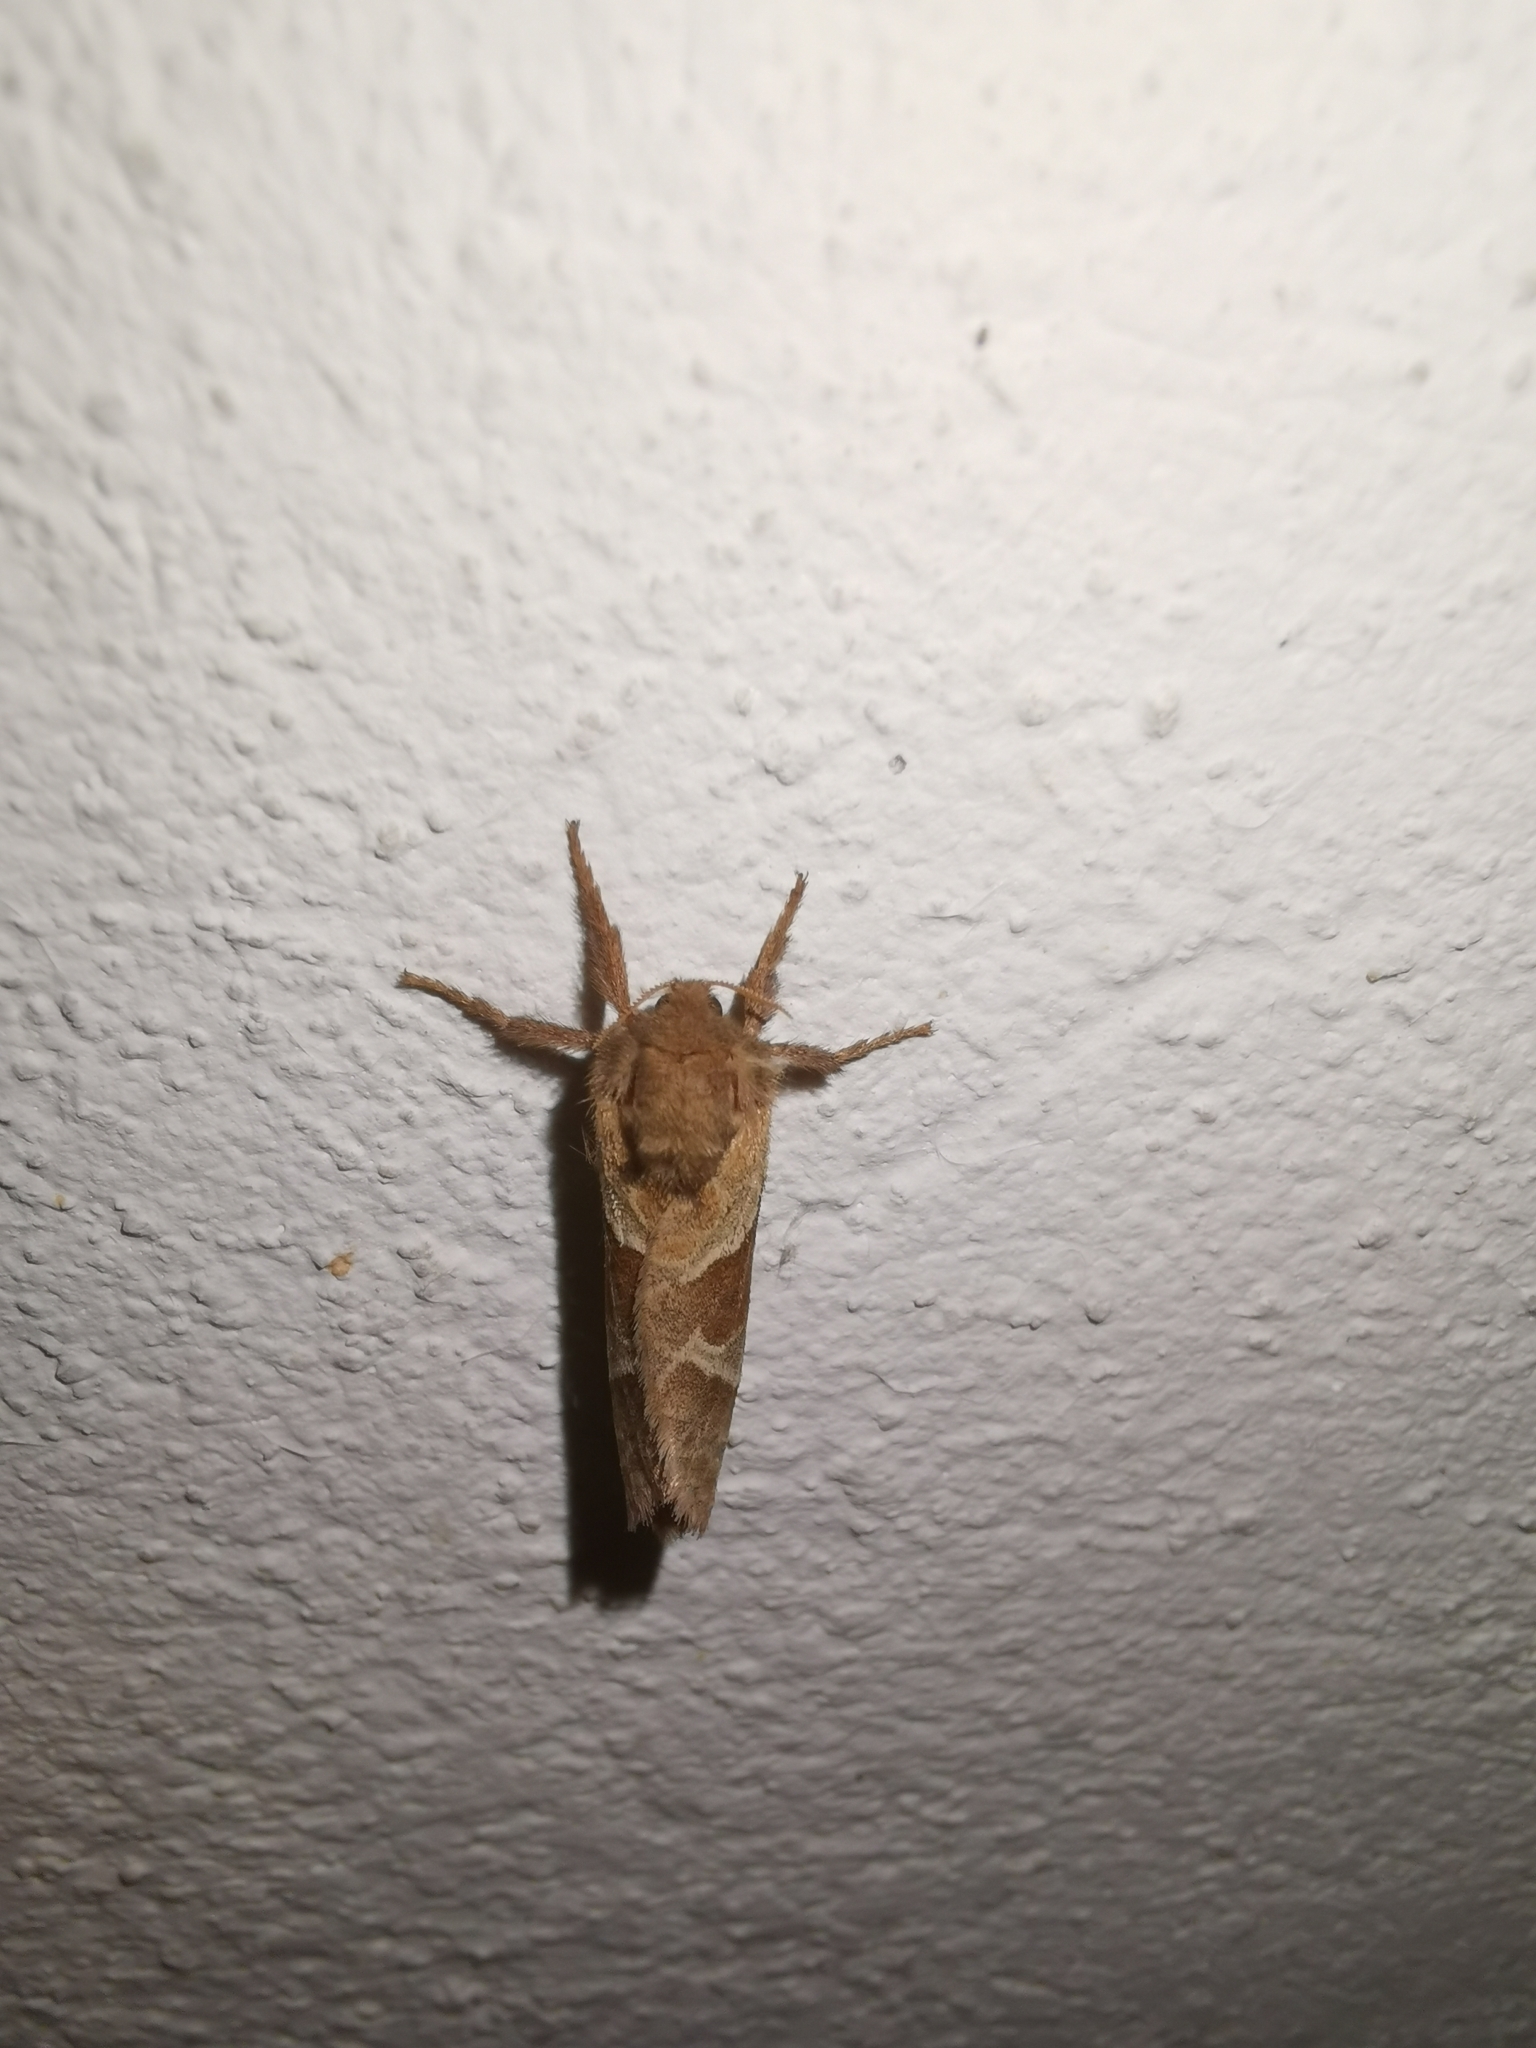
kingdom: Animalia
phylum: Arthropoda
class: Insecta
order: Lepidoptera
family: Hepialidae
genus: Triodia
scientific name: Triodia sylvina
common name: Orange swift
